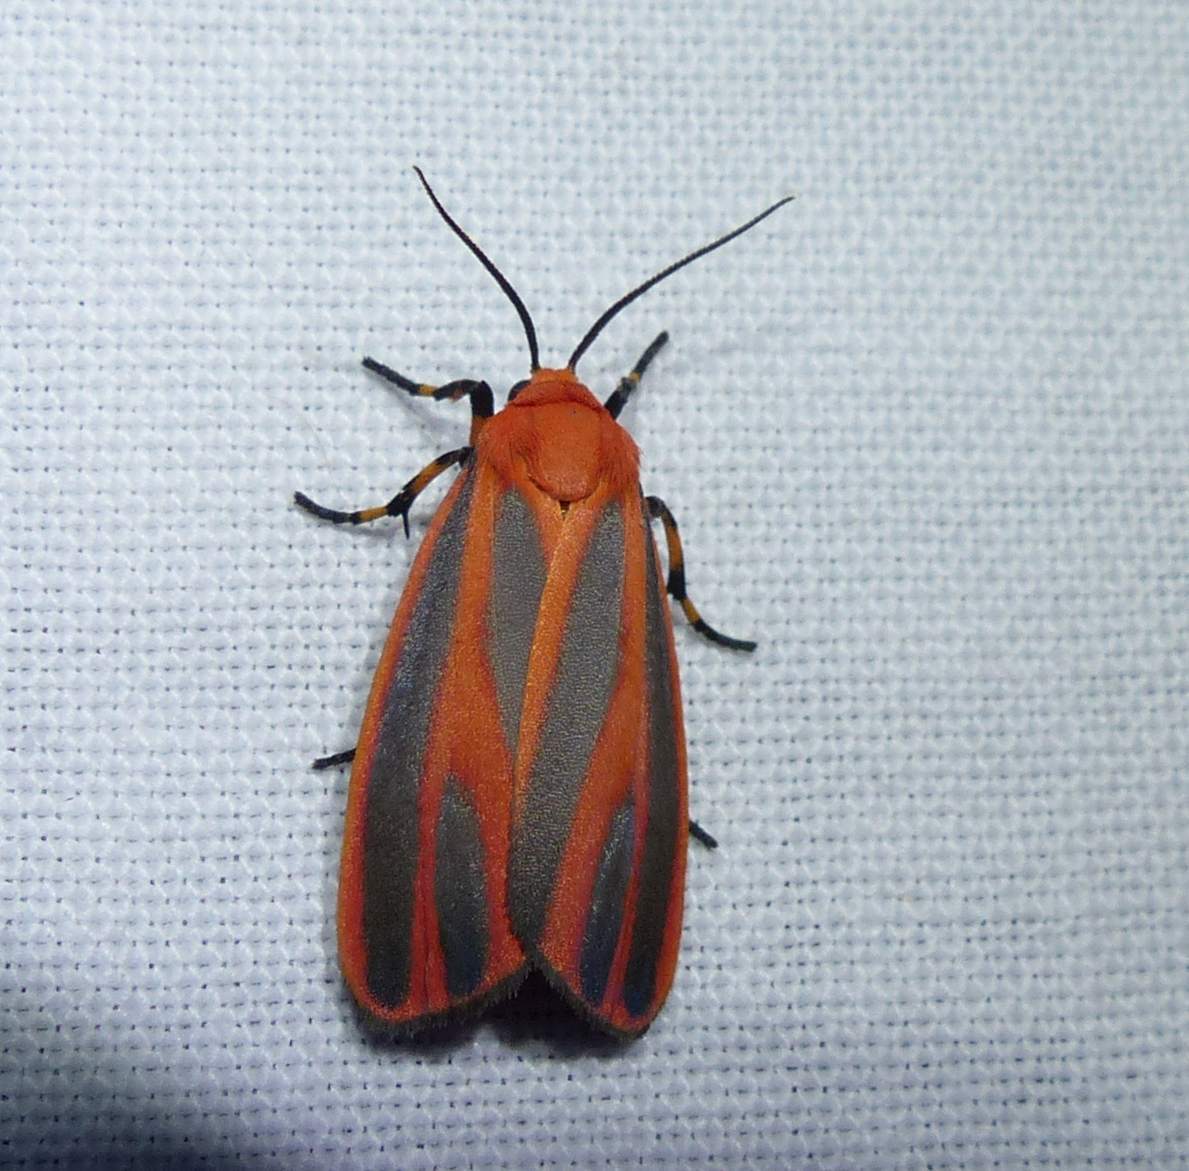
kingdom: Animalia
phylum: Arthropoda
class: Insecta
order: Lepidoptera
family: Erebidae
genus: Hypoprepia
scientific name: Hypoprepia miniata
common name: Scarlet-winged lichen moth
